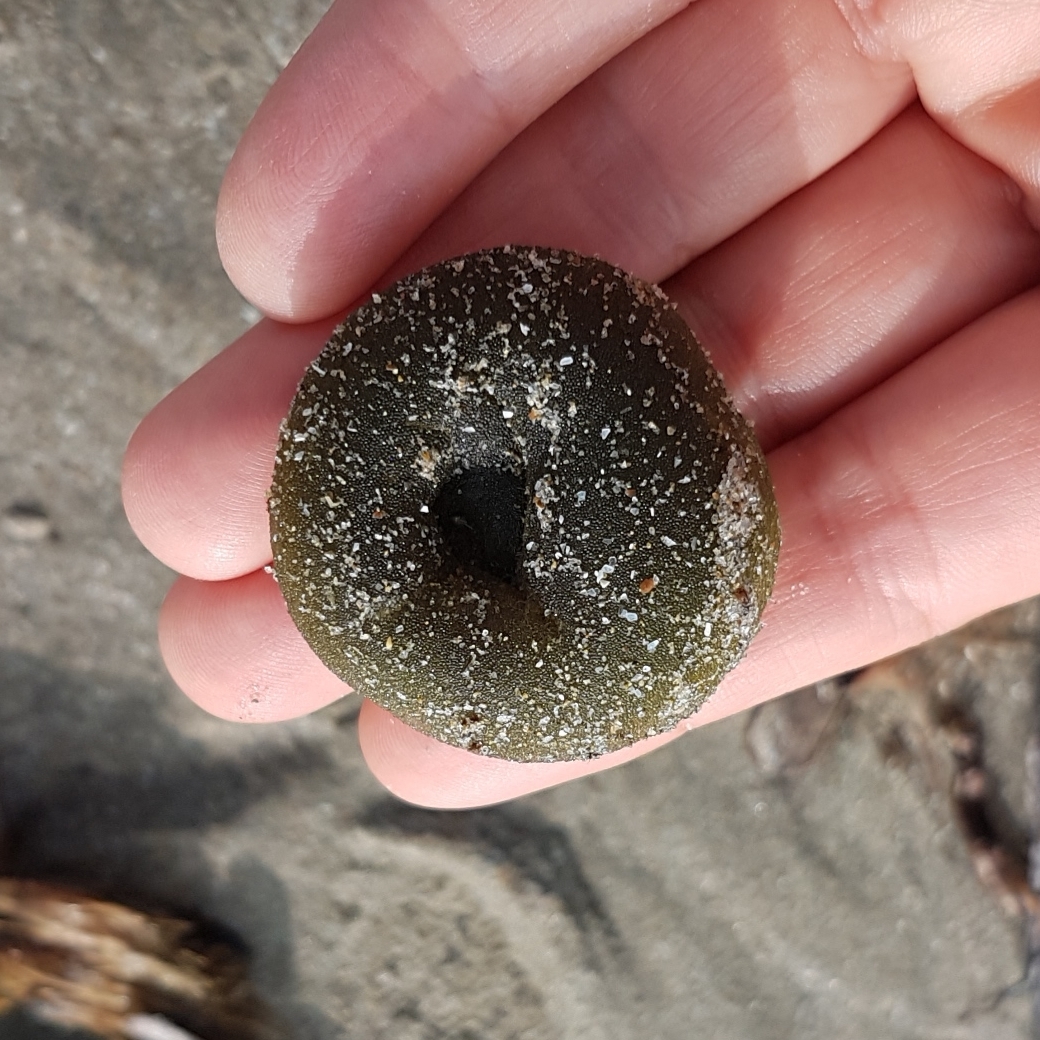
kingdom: Plantae
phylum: Chlorophyta
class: Ulvophyceae
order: Bryopsidales
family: Codiaceae
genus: Codium
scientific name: Codium bursa
